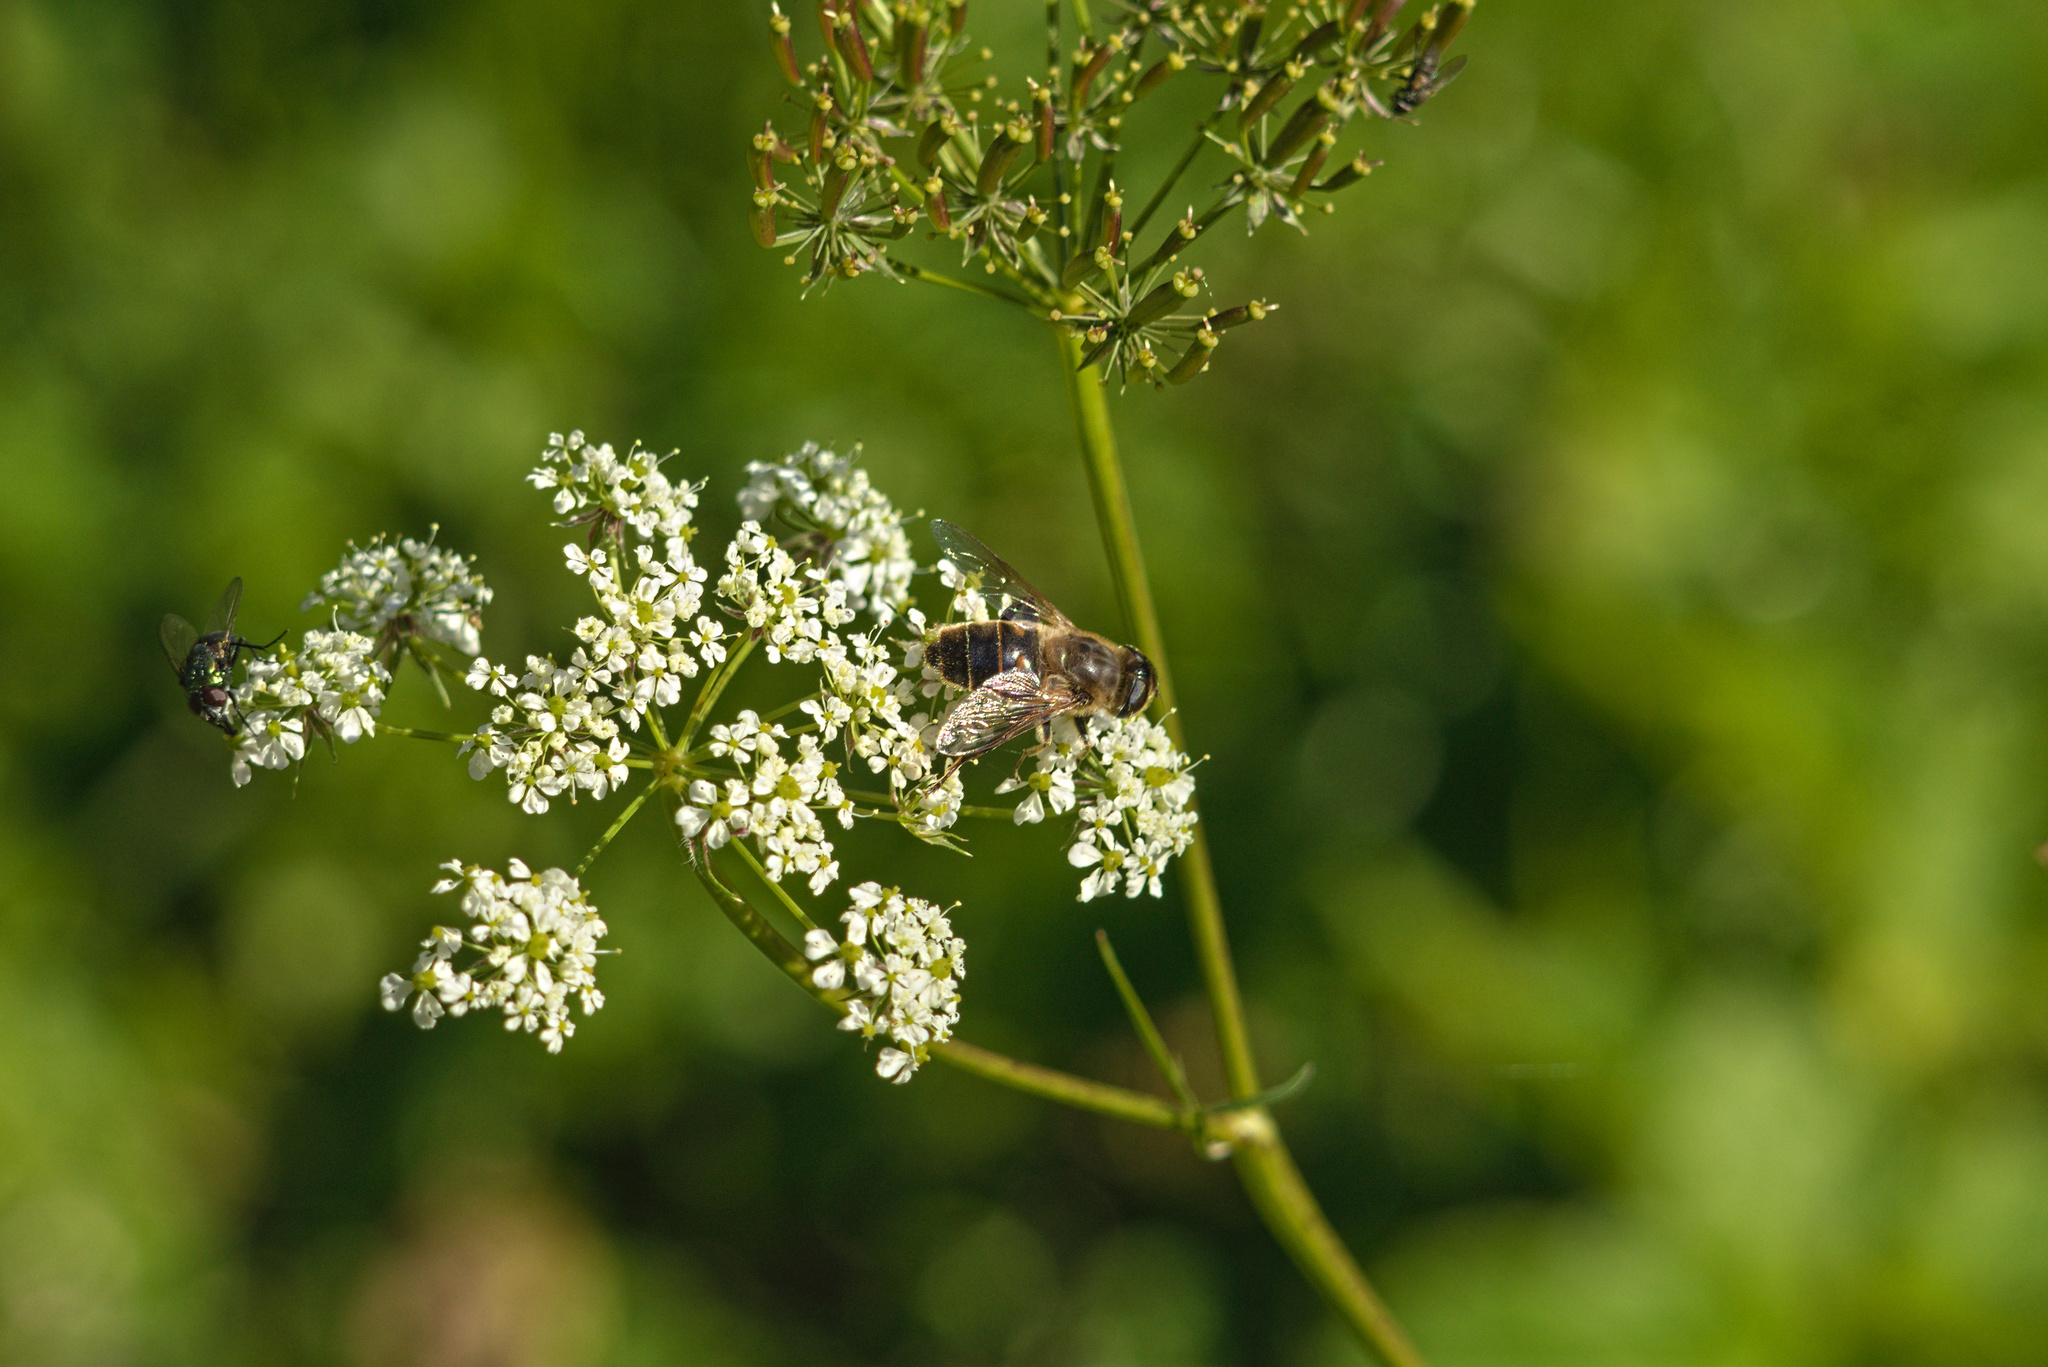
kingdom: Animalia
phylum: Arthropoda
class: Insecta
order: Diptera
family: Syrphidae
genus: Eristalis
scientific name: Eristalis tenax
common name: Drone fly
